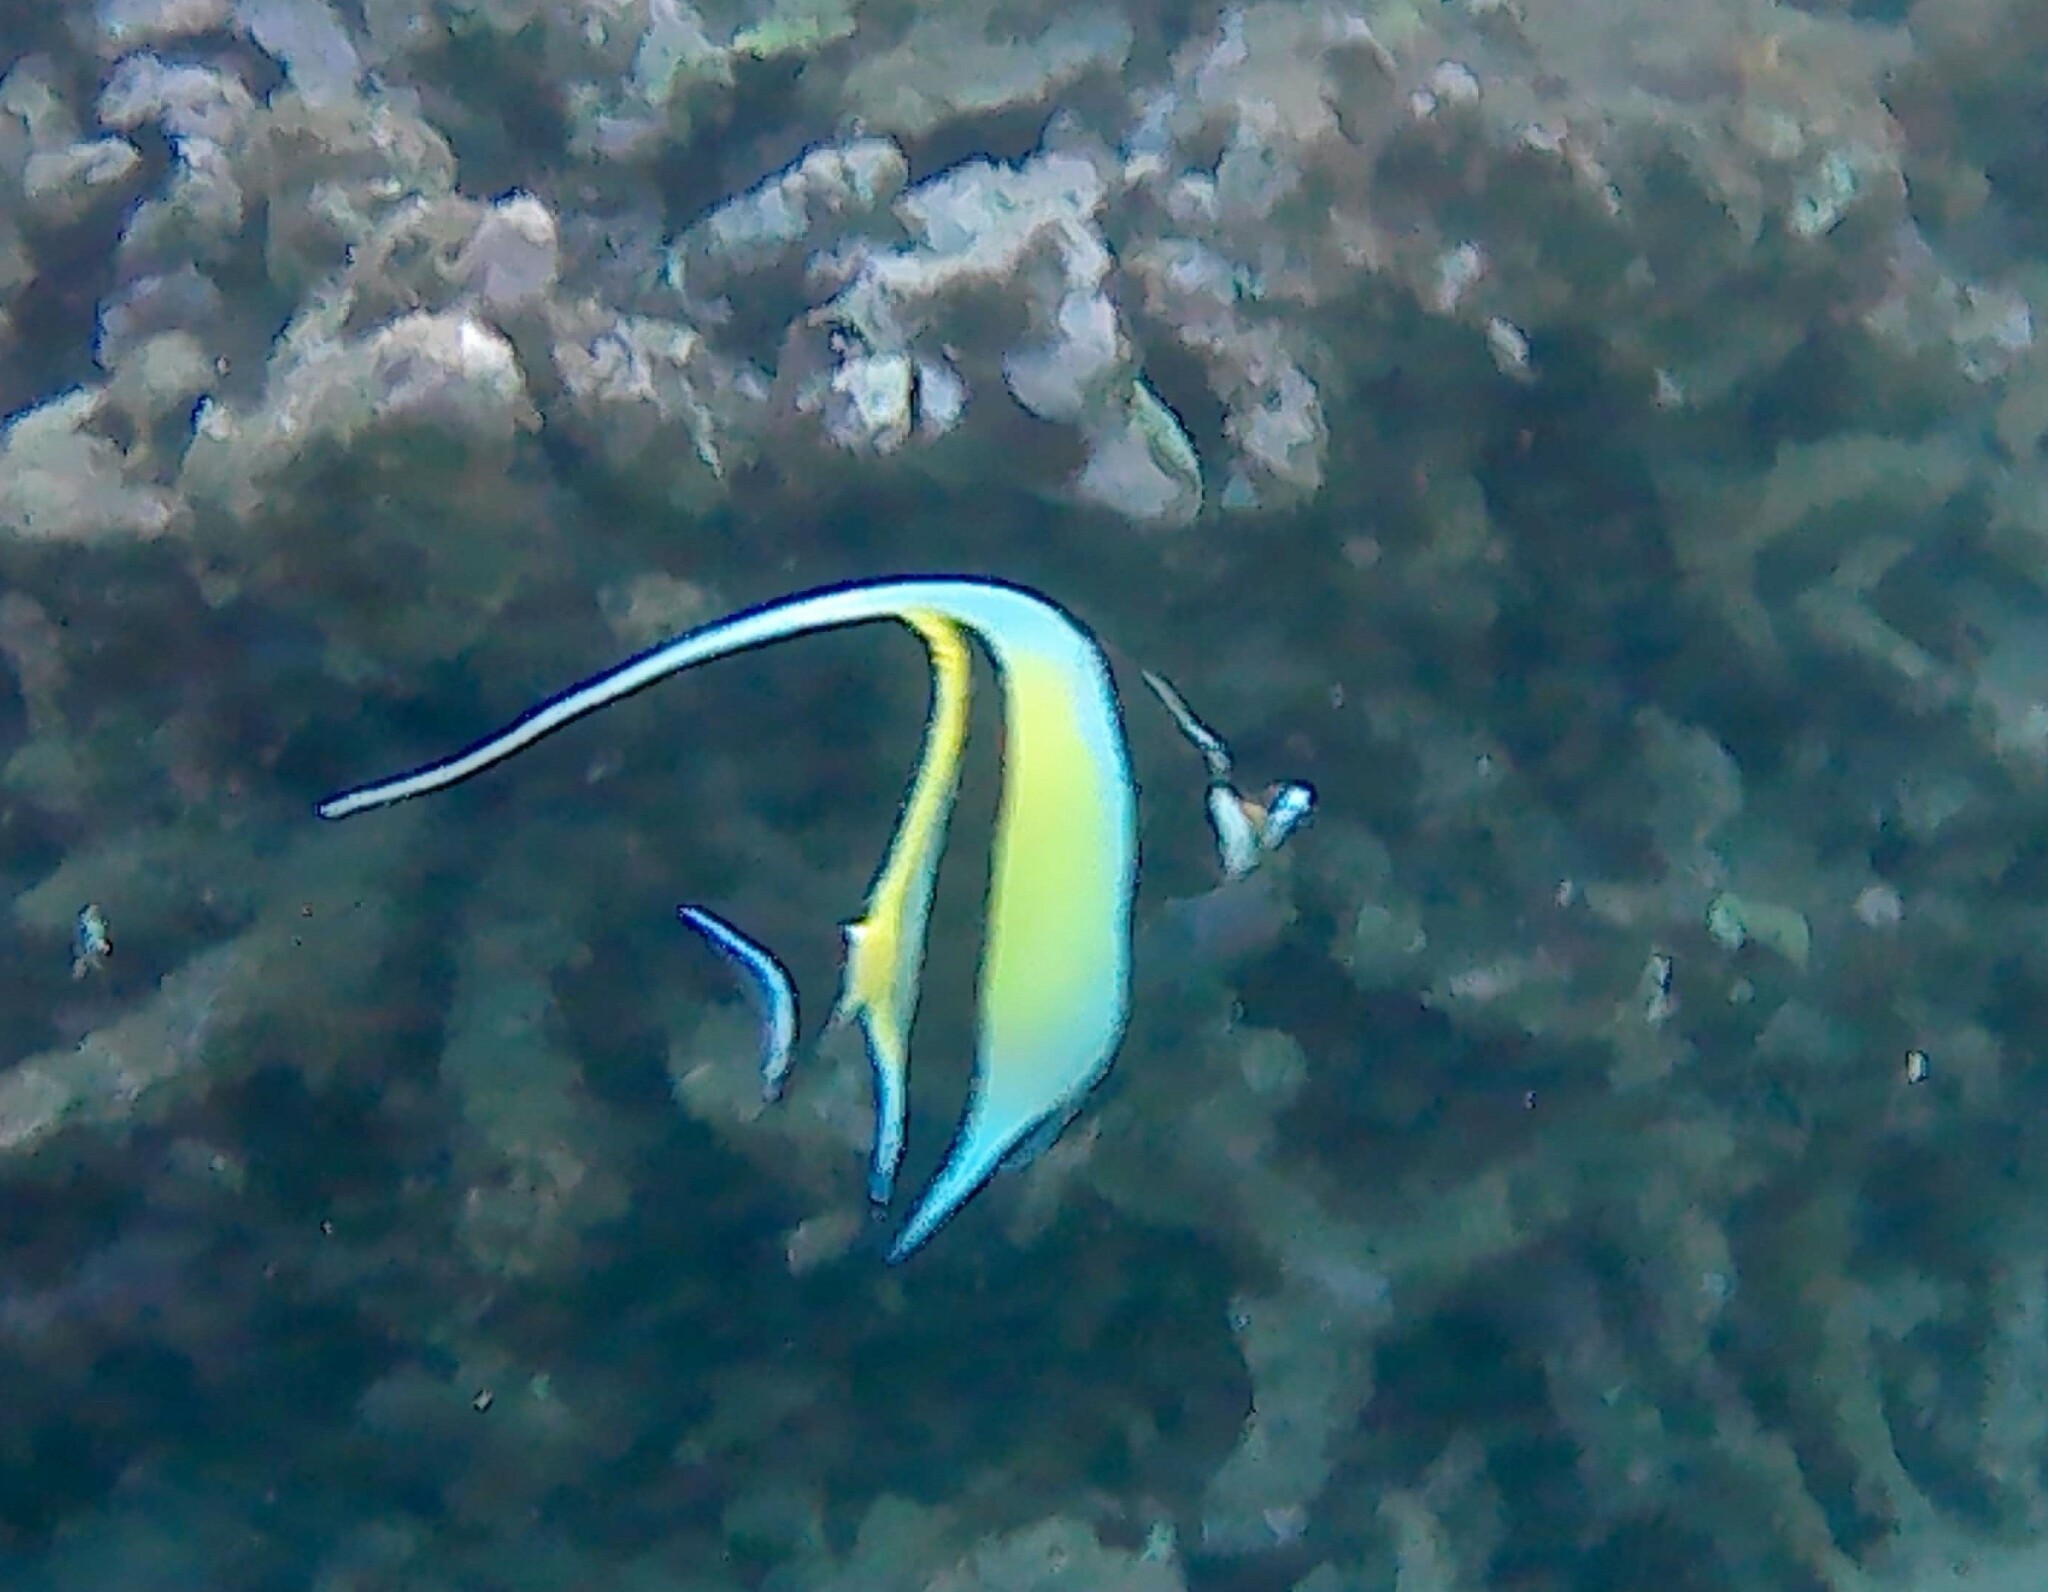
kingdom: Animalia
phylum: Chordata
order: Perciformes
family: Zanclidae
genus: Zanclus
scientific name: Zanclus cornutus
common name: Moorish idol
